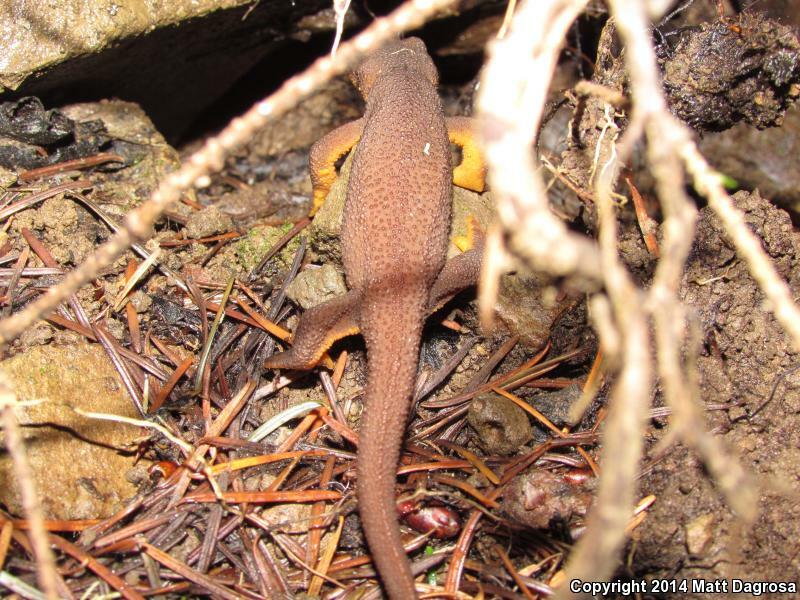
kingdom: Animalia
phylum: Chordata
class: Amphibia
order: Caudata
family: Salamandridae
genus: Taricha
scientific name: Taricha granulosa
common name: Roughskin newt
